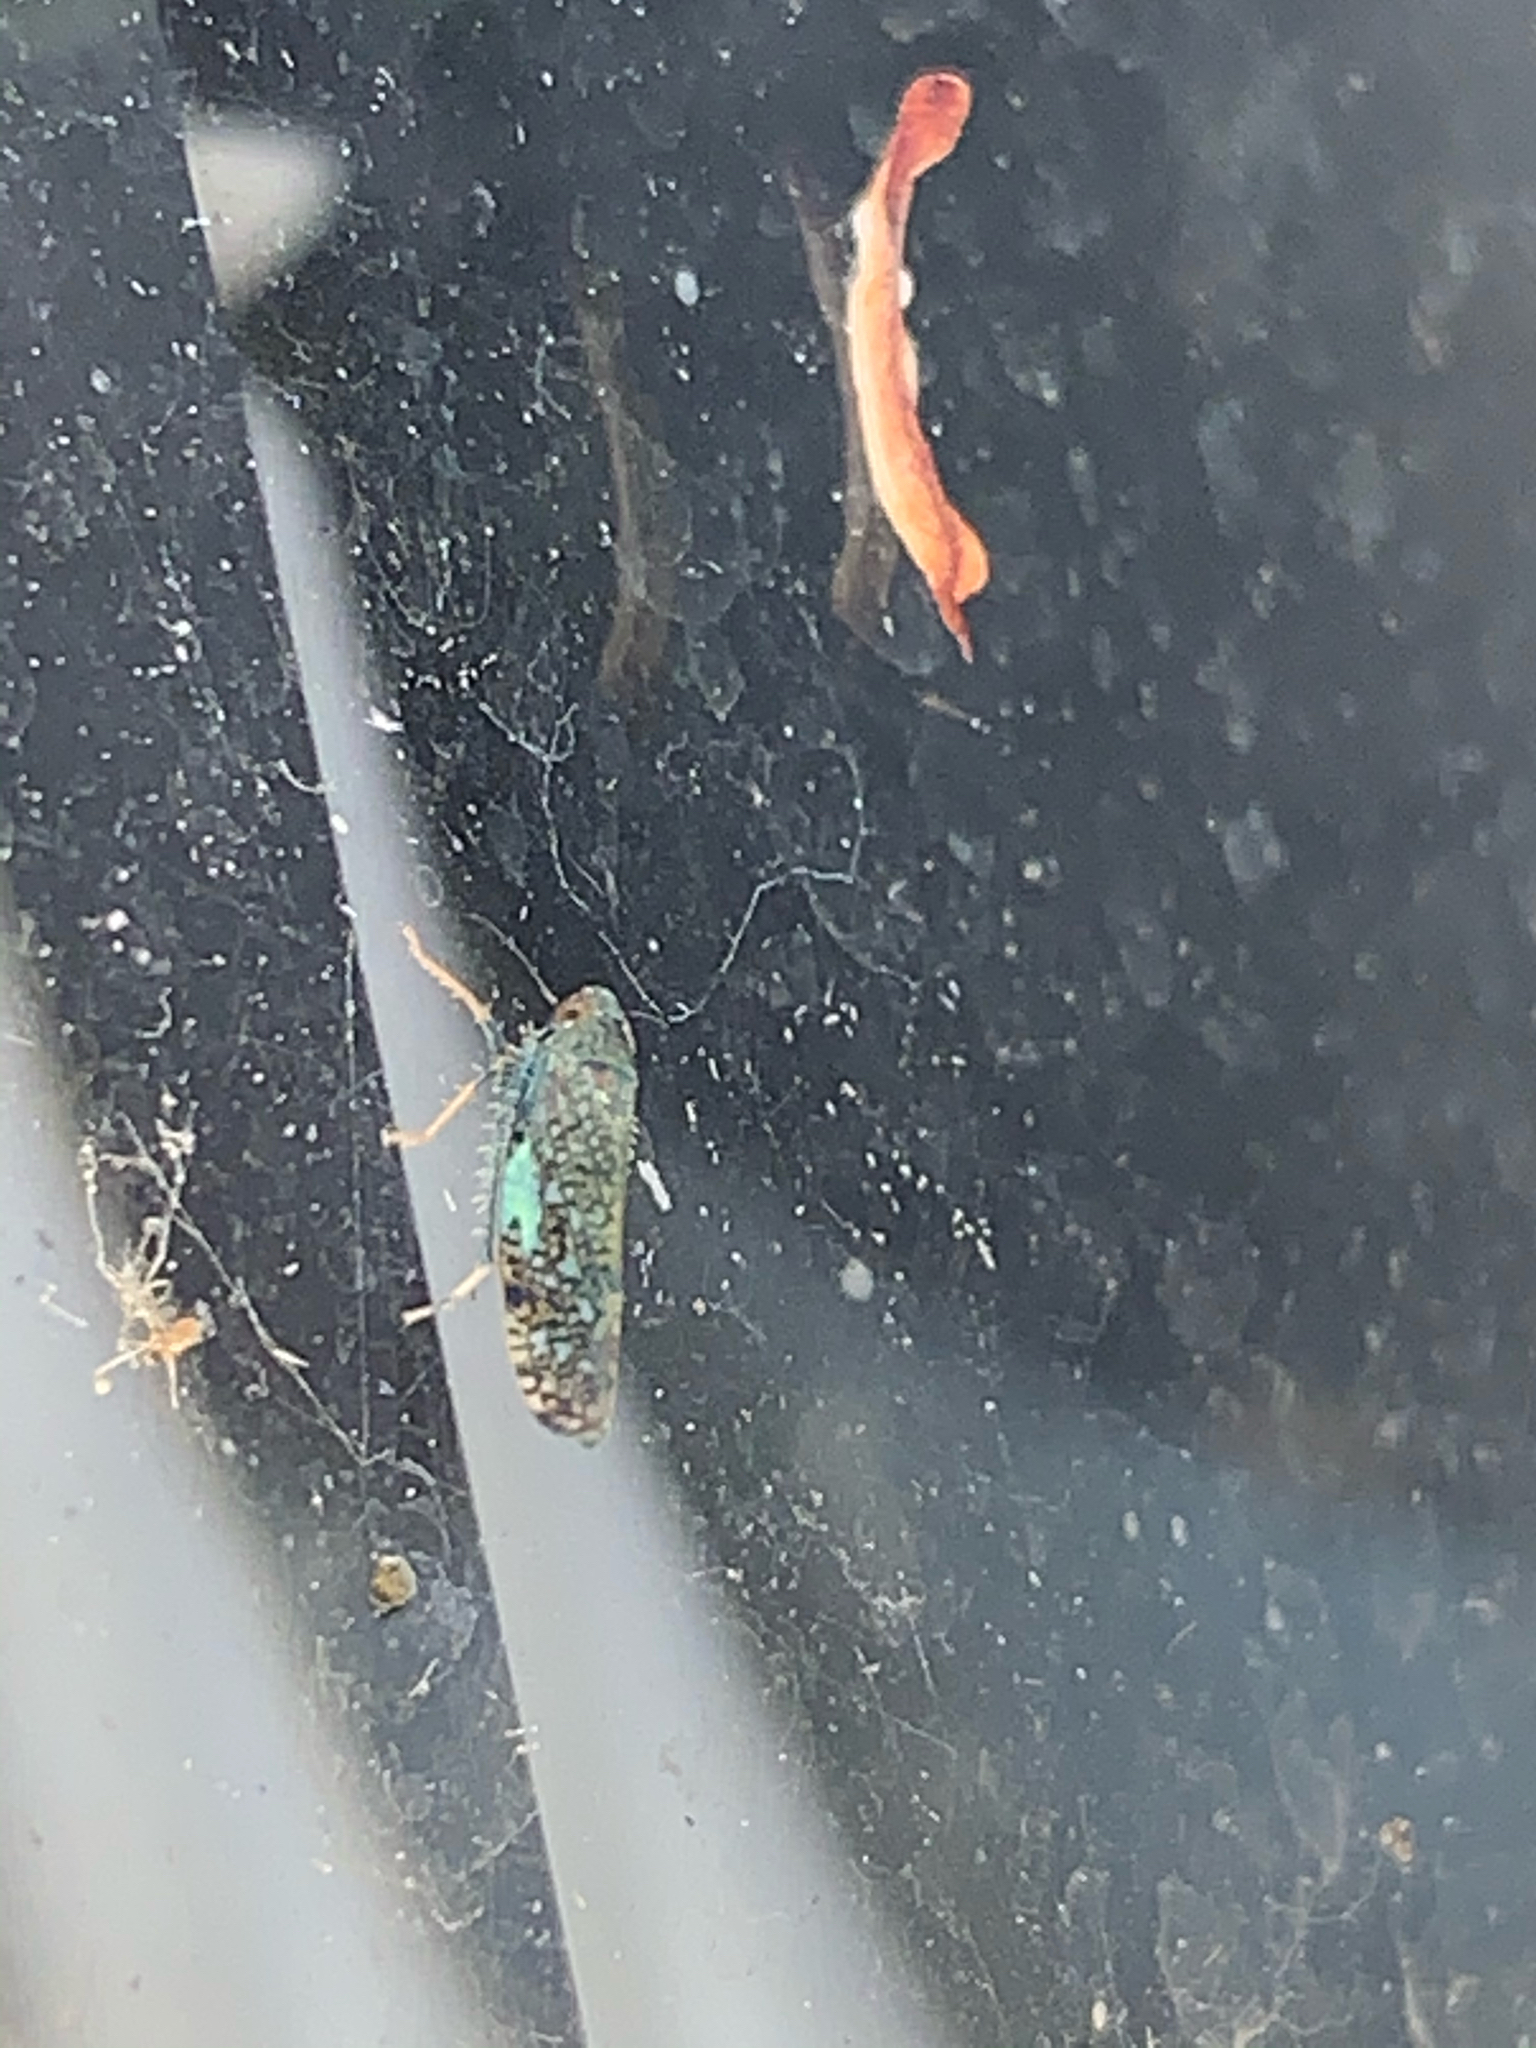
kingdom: Animalia
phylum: Arthropoda
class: Insecta
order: Hemiptera
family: Cicadellidae
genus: Orientus
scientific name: Orientus ishidae
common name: Japanese leafhopper
